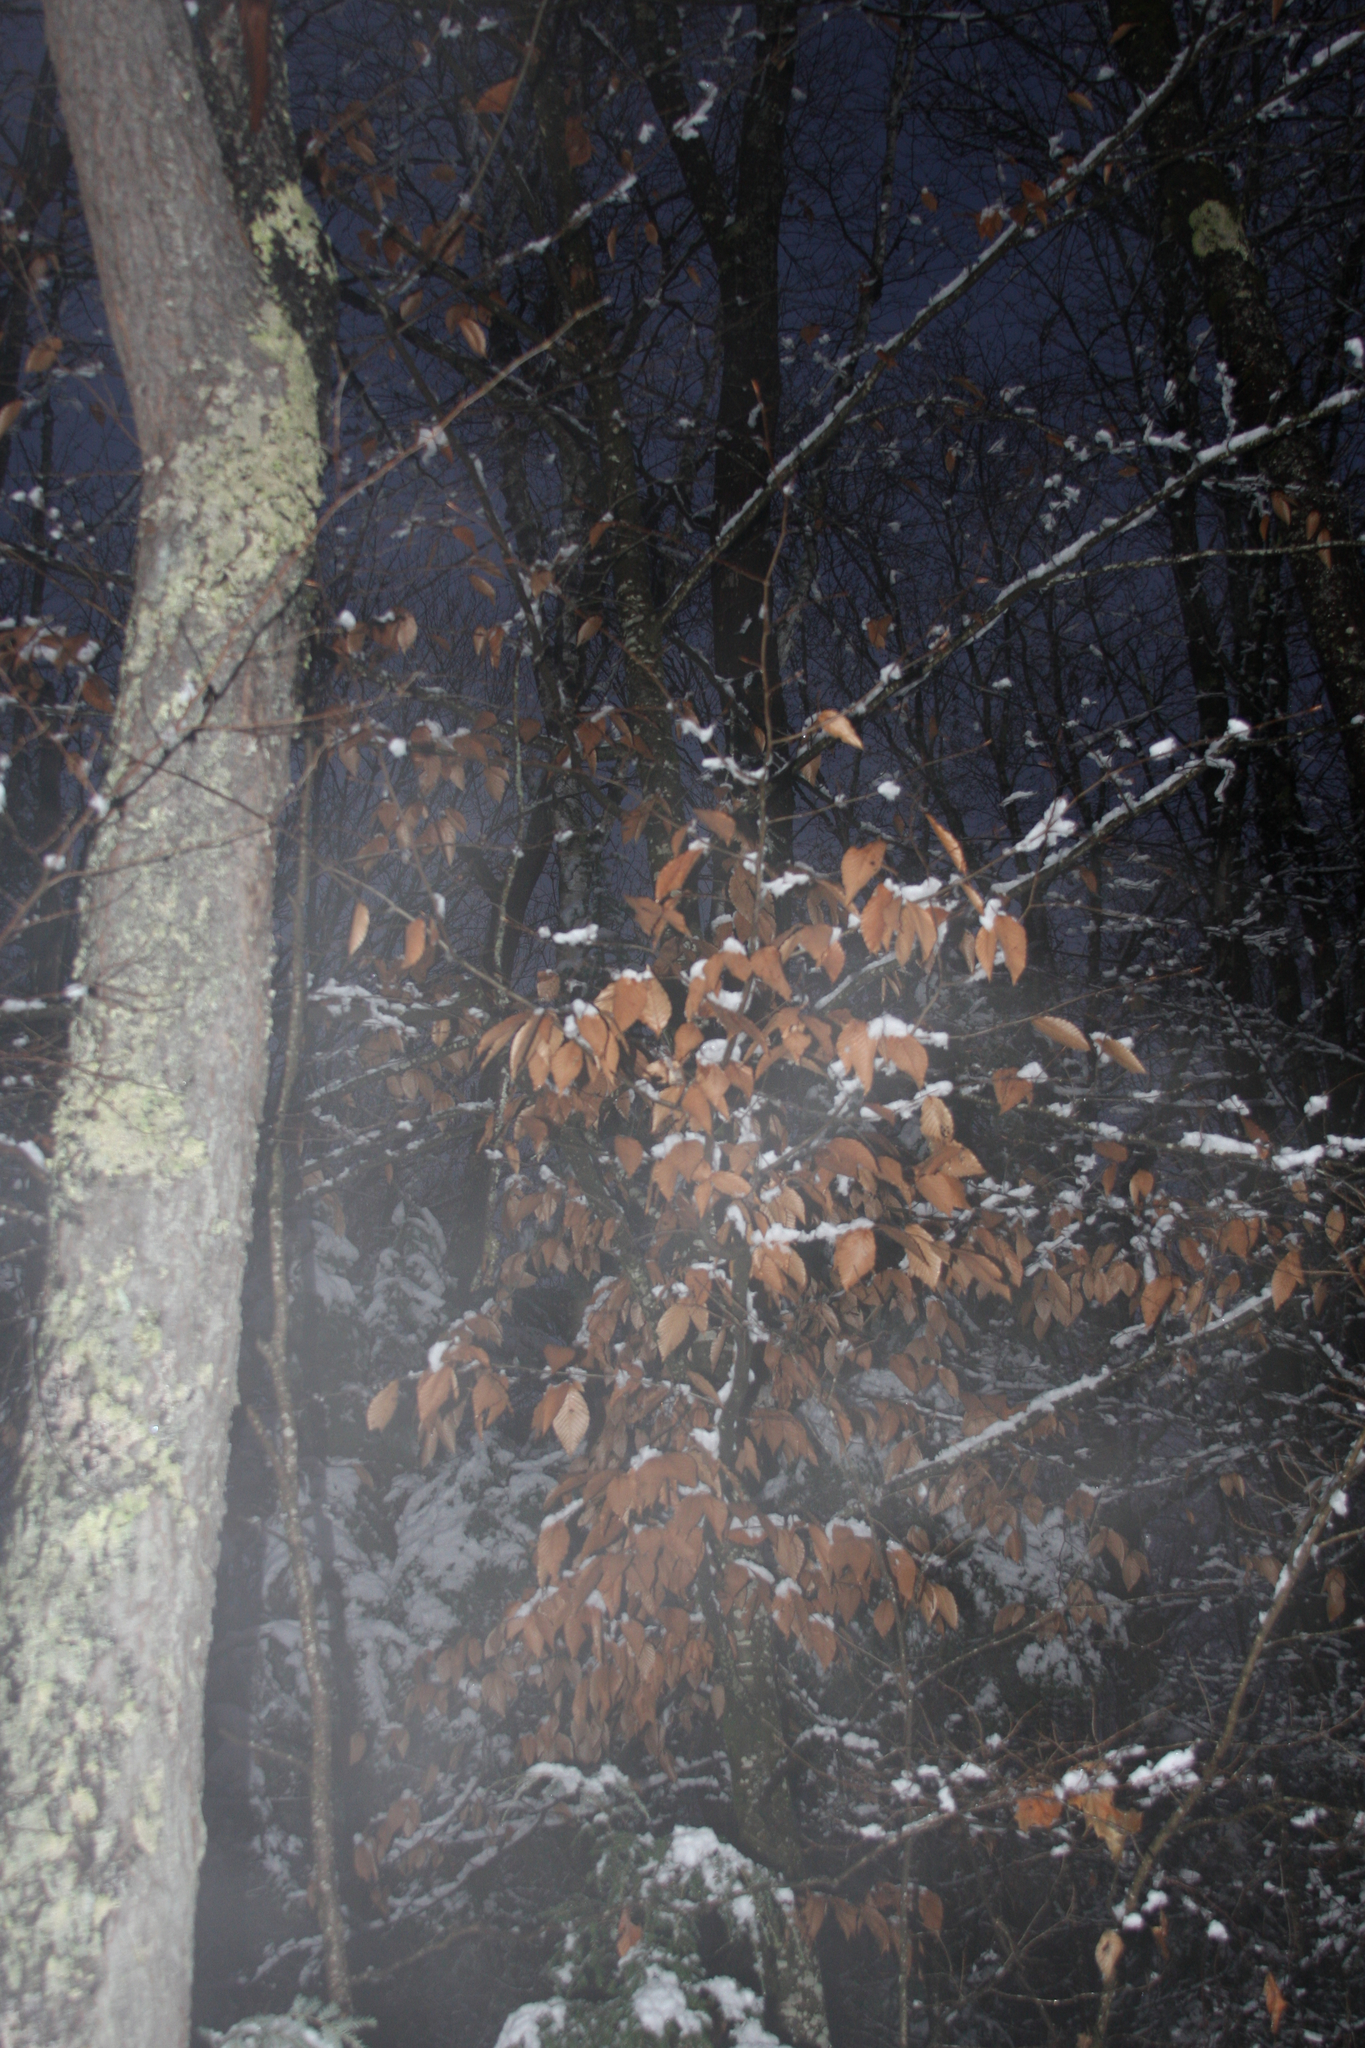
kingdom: Plantae
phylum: Tracheophyta
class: Magnoliopsida
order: Fagales
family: Fagaceae
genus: Fagus
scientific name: Fagus grandifolia
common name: American beech
